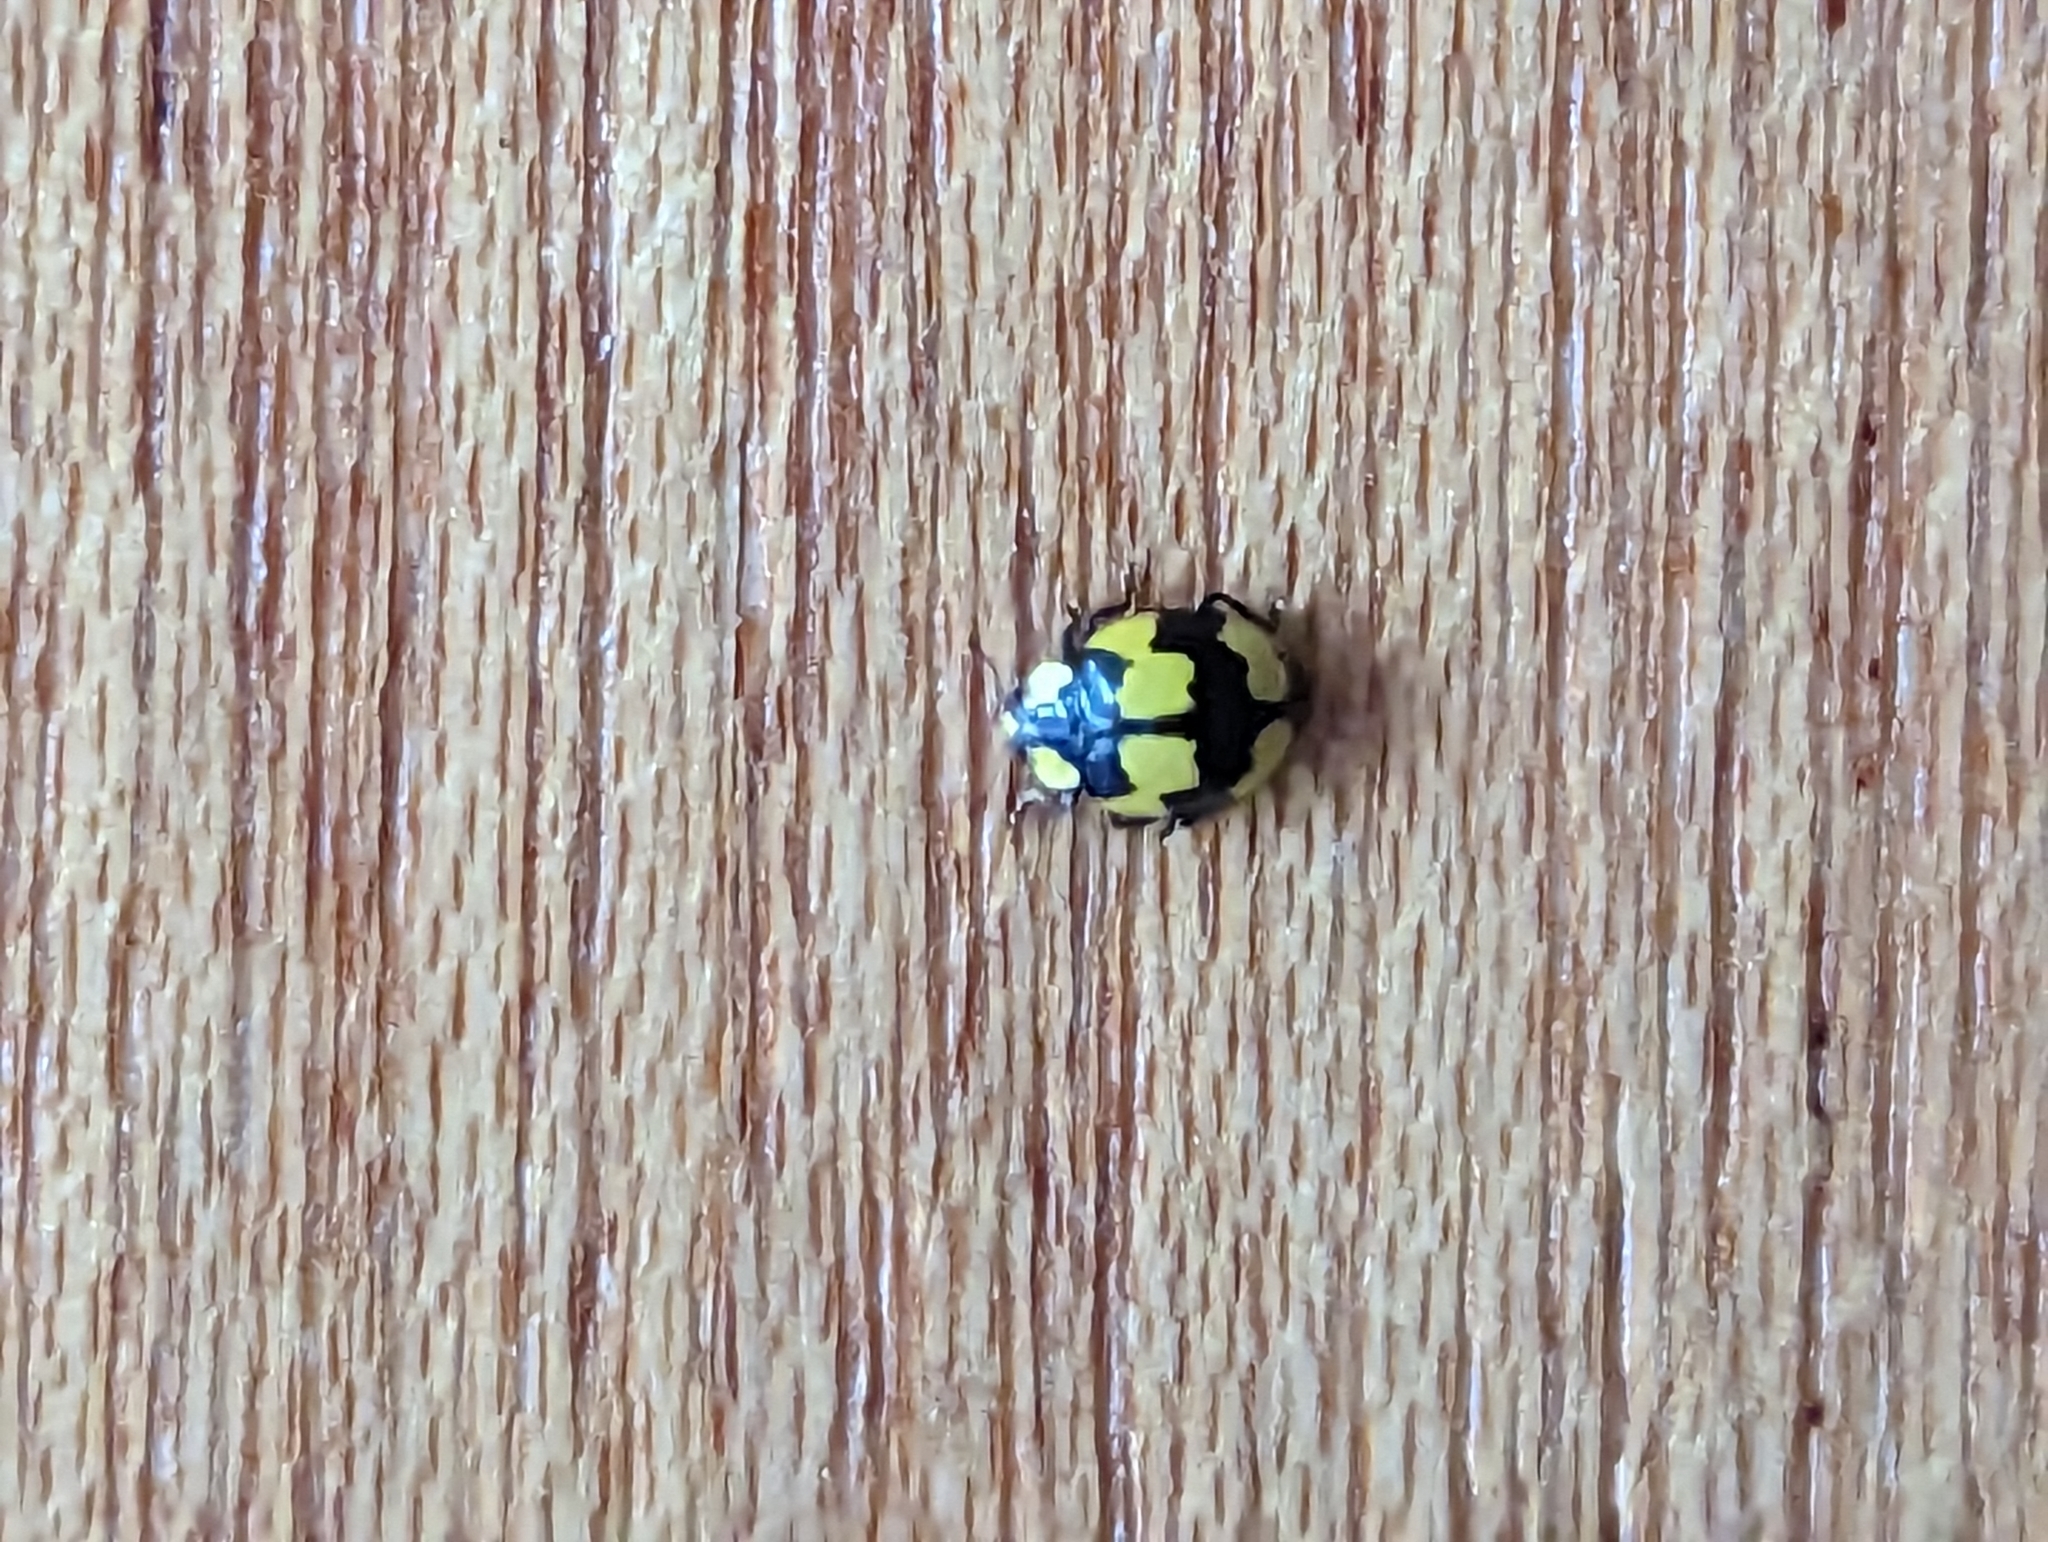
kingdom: Animalia
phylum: Arthropoda
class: Insecta
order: Coleoptera
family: Coccinellidae
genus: Illeis
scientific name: Illeis galbula
